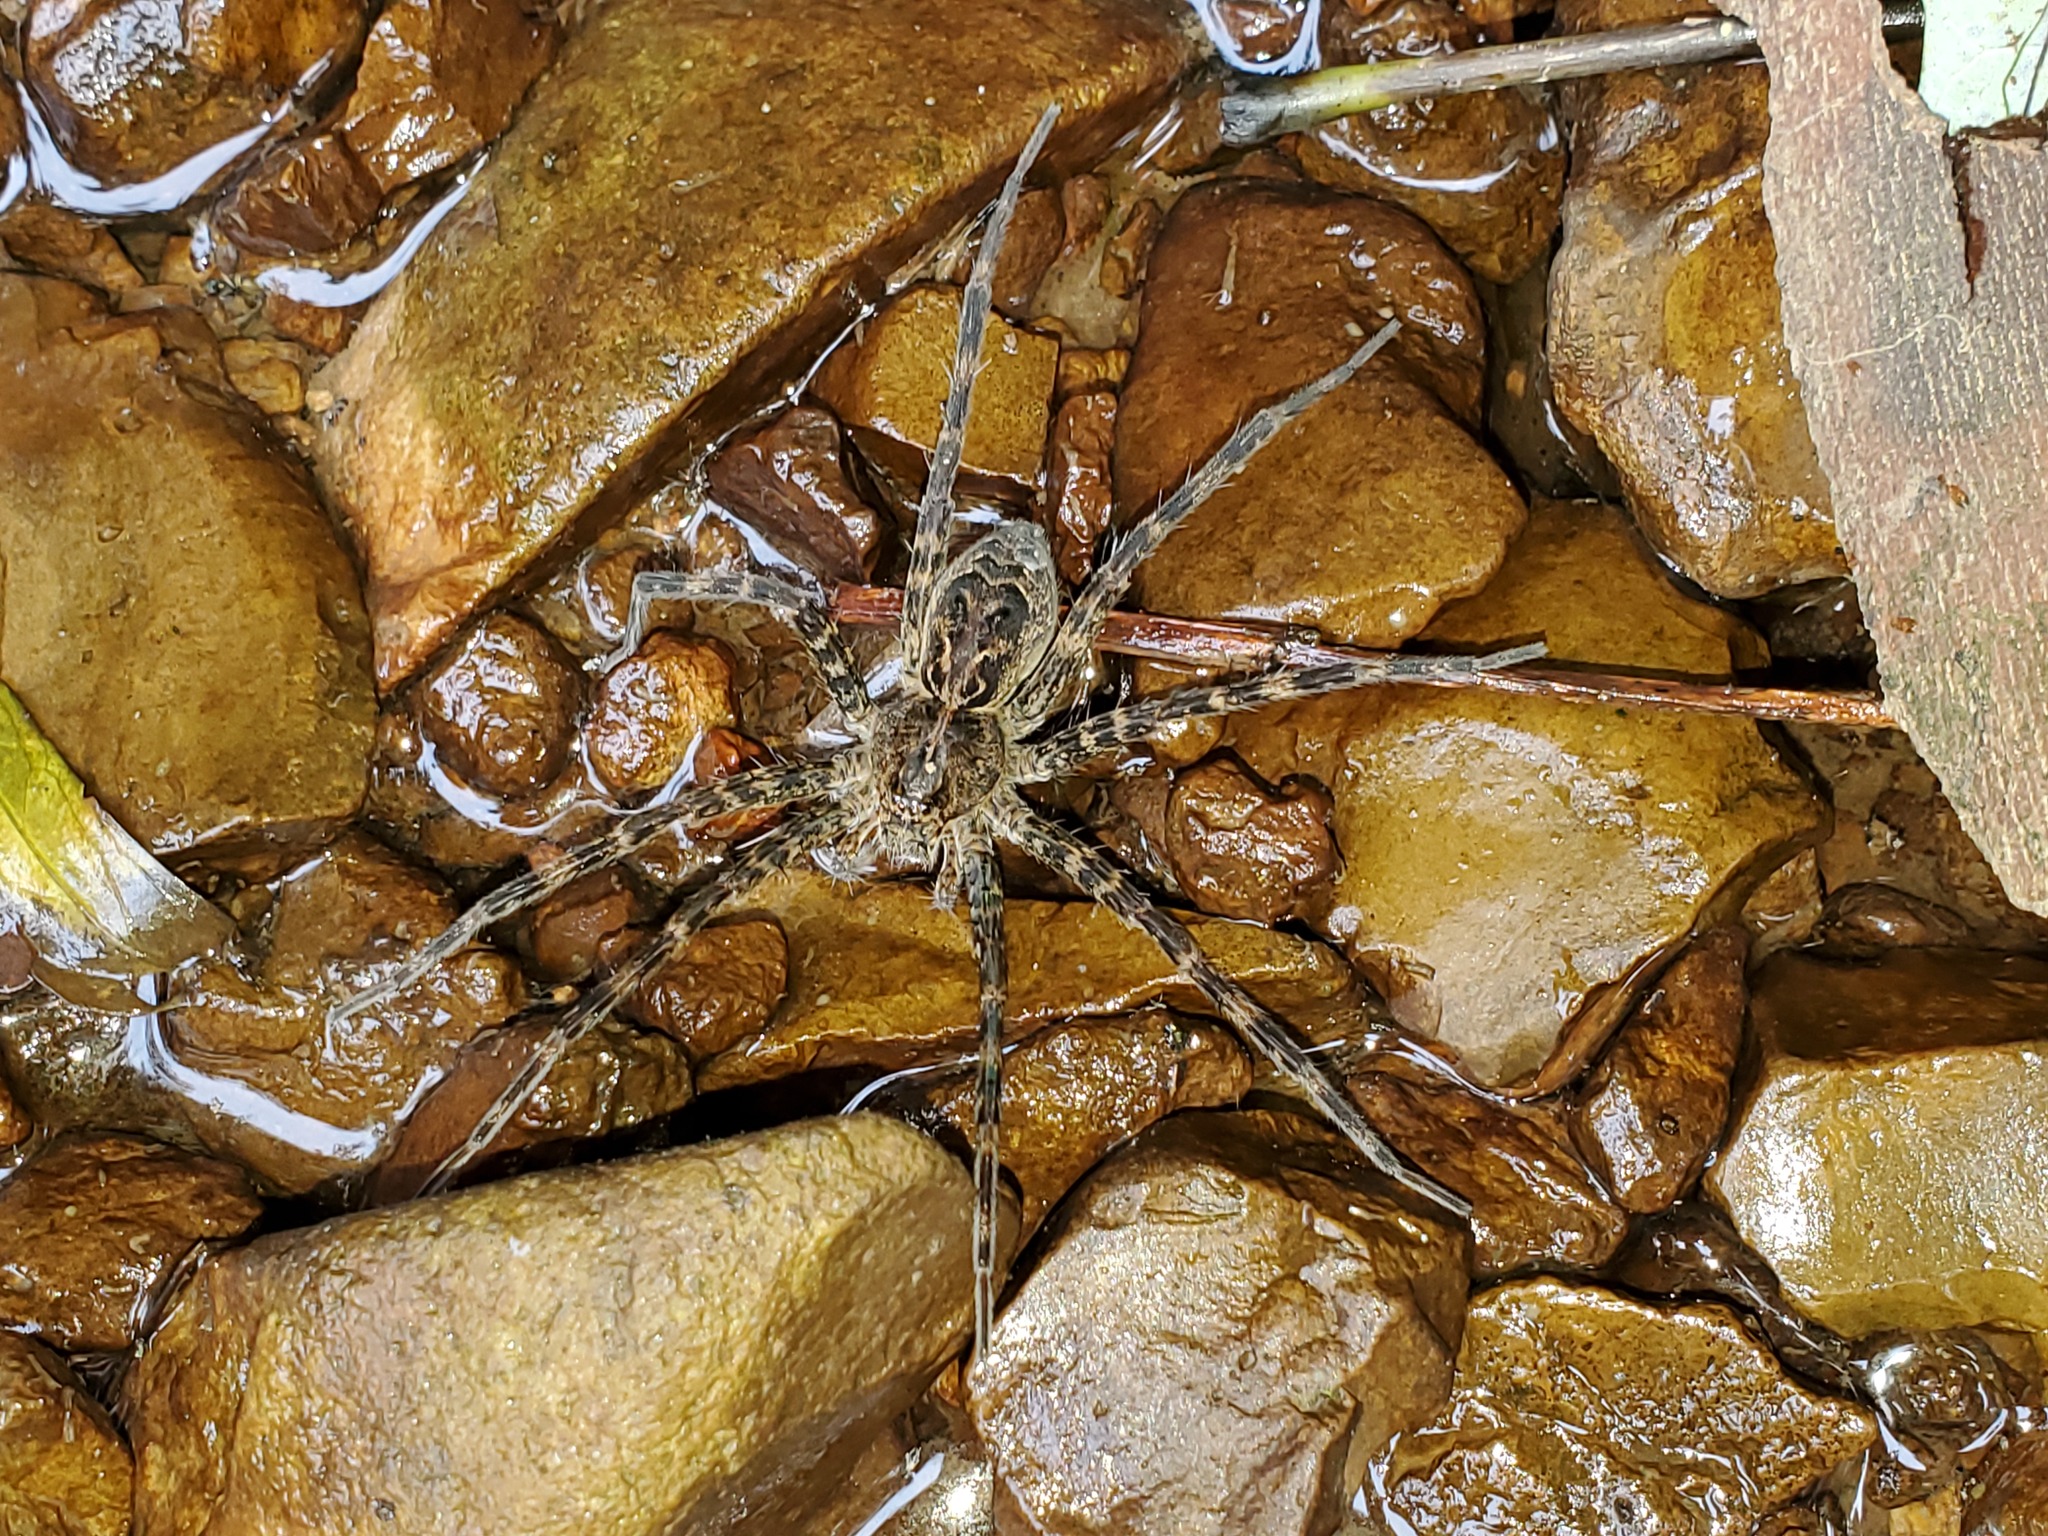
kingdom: Animalia
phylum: Arthropoda
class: Arachnida
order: Araneae
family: Pisauridae
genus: Dolomedes
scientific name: Dolomedes scriptus
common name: Striped fishing spider
